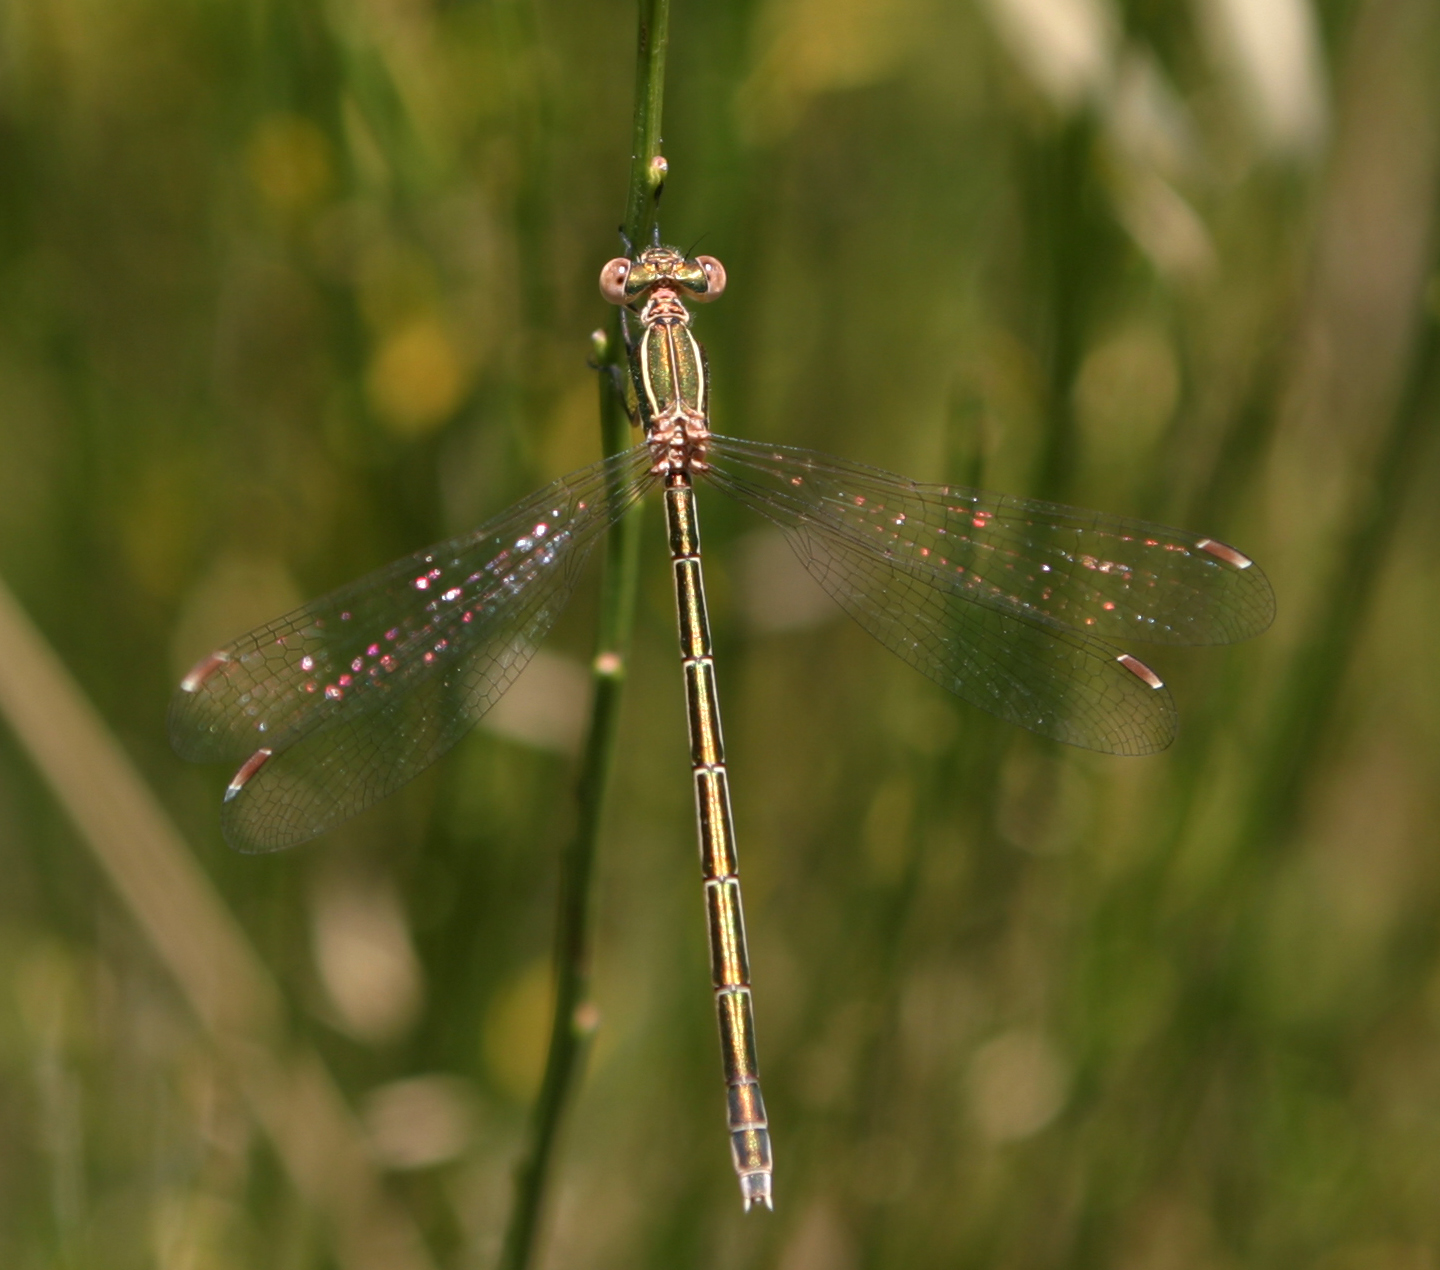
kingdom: Animalia
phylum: Arthropoda
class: Insecta
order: Odonata
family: Lestidae
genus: Lestes
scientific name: Lestes virens
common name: Small emerald spreadwing
